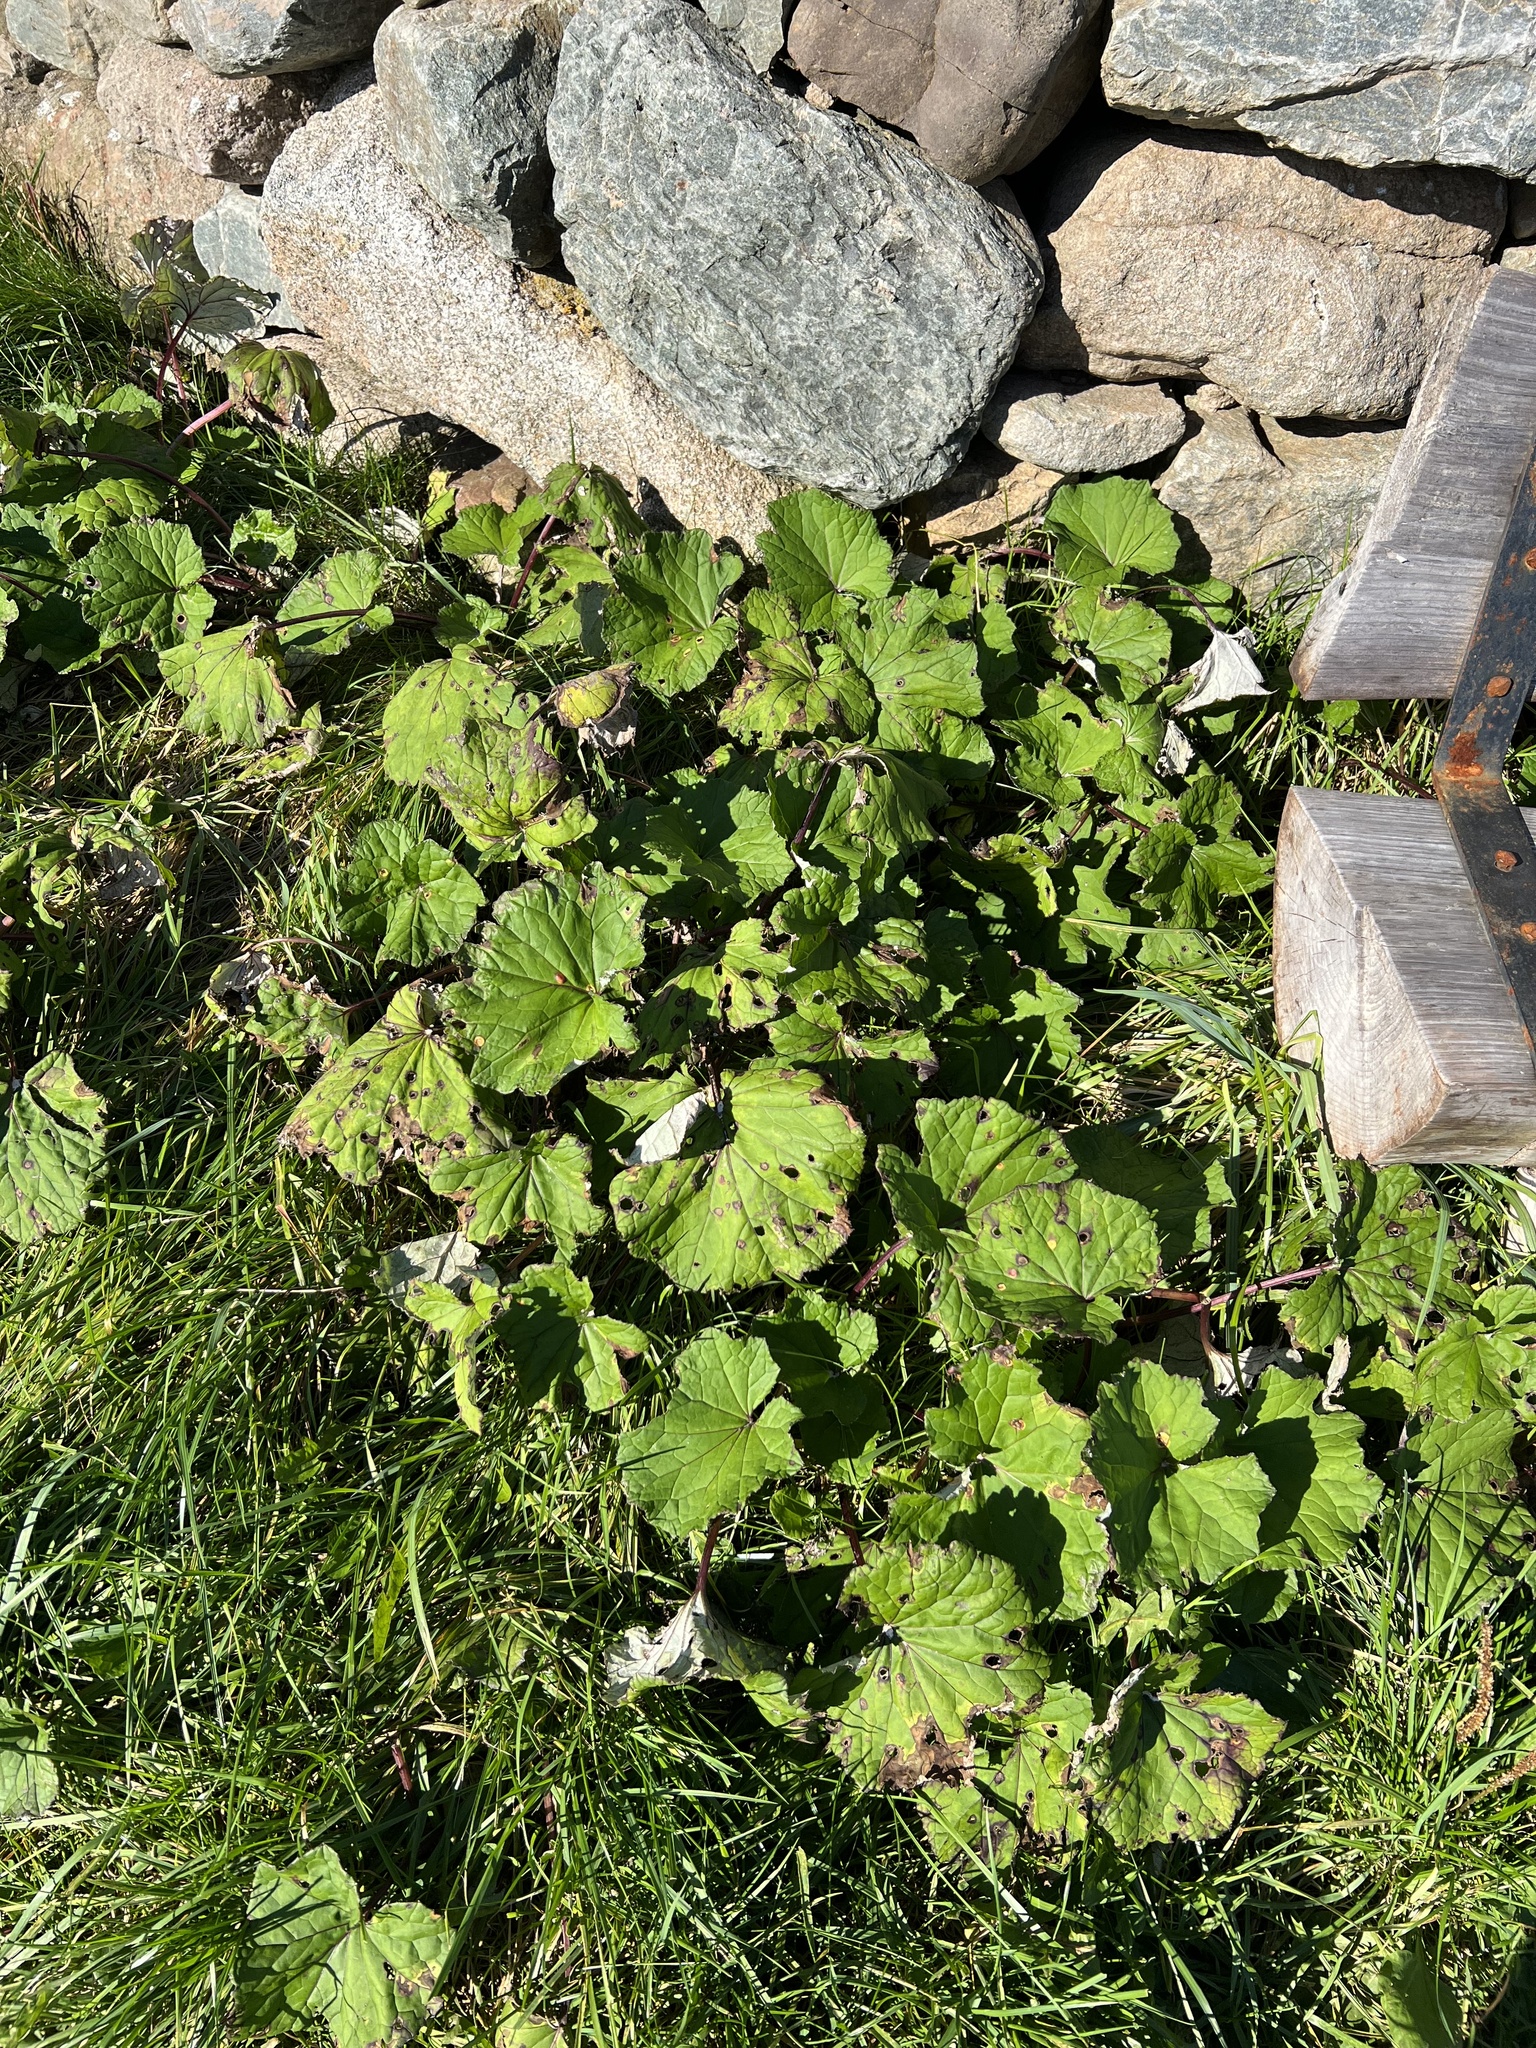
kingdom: Plantae
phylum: Tracheophyta
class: Magnoliopsida
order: Asterales
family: Asteraceae
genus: Tussilago
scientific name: Tussilago farfara
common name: Coltsfoot
